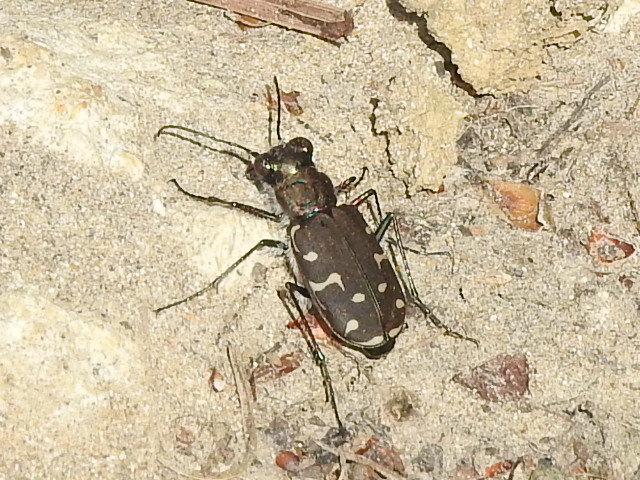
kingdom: Animalia
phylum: Arthropoda
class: Insecta
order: Coleoptera
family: Carabidae
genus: Cicindela
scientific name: Cicindela duodecimguttata
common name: Twelve-spotted tiger beetle
